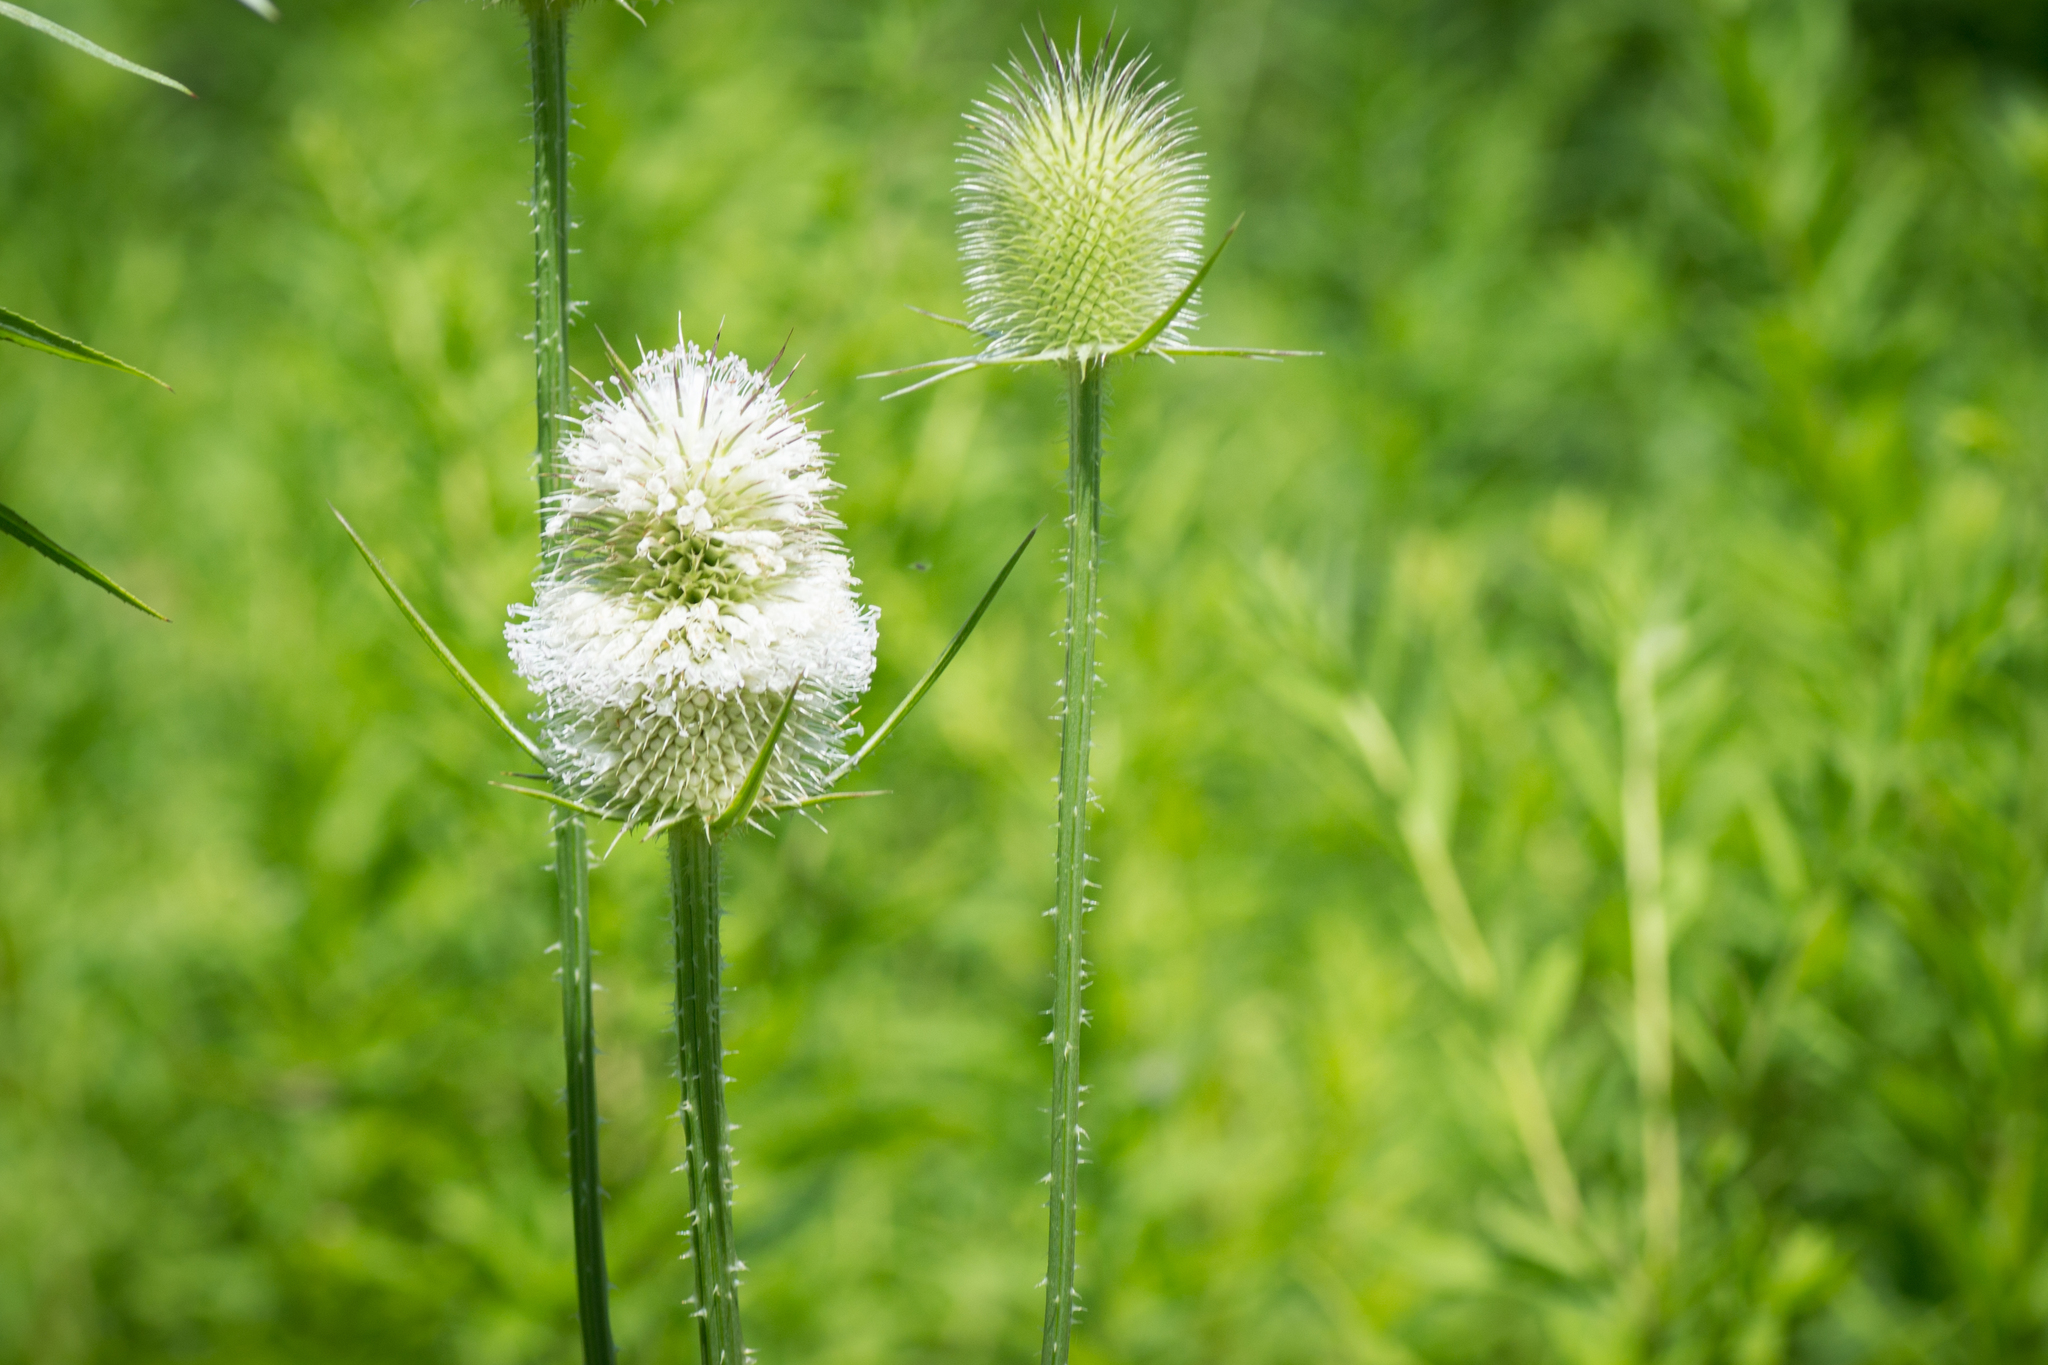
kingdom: Plantae
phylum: Tracheophyta
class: Magnoliopsida
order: Dipsacales
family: Caprifoliaceae
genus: Dipsacus
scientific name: Dipsacus laciniatus
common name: Cut-leaved teasel
